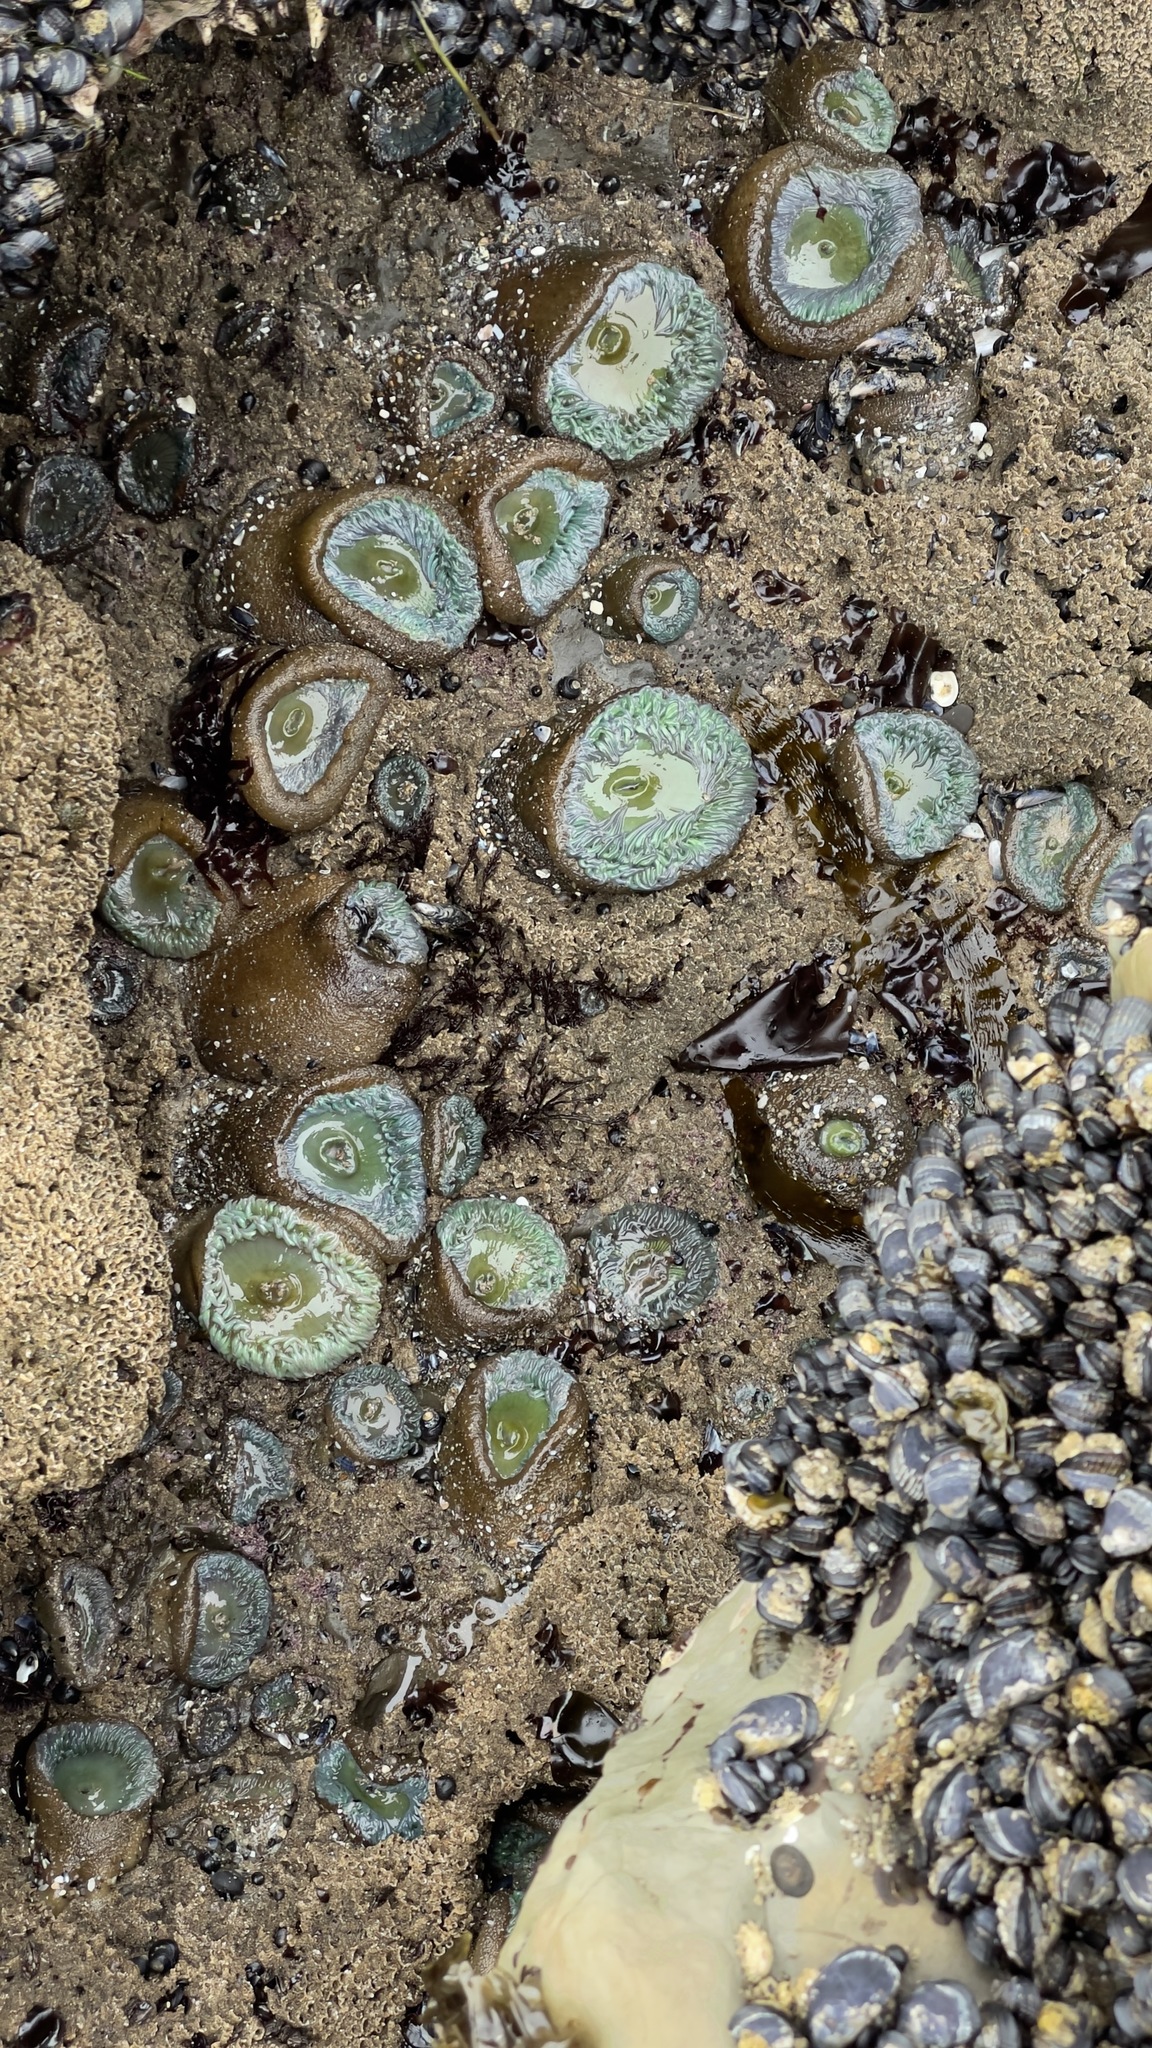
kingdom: Animalia
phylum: Cnidaria
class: Anthozoa
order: Actiniaria
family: Actiniidae
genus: Anthopleura
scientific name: Anthopleura xanthogrammica
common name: Giant green anemone
